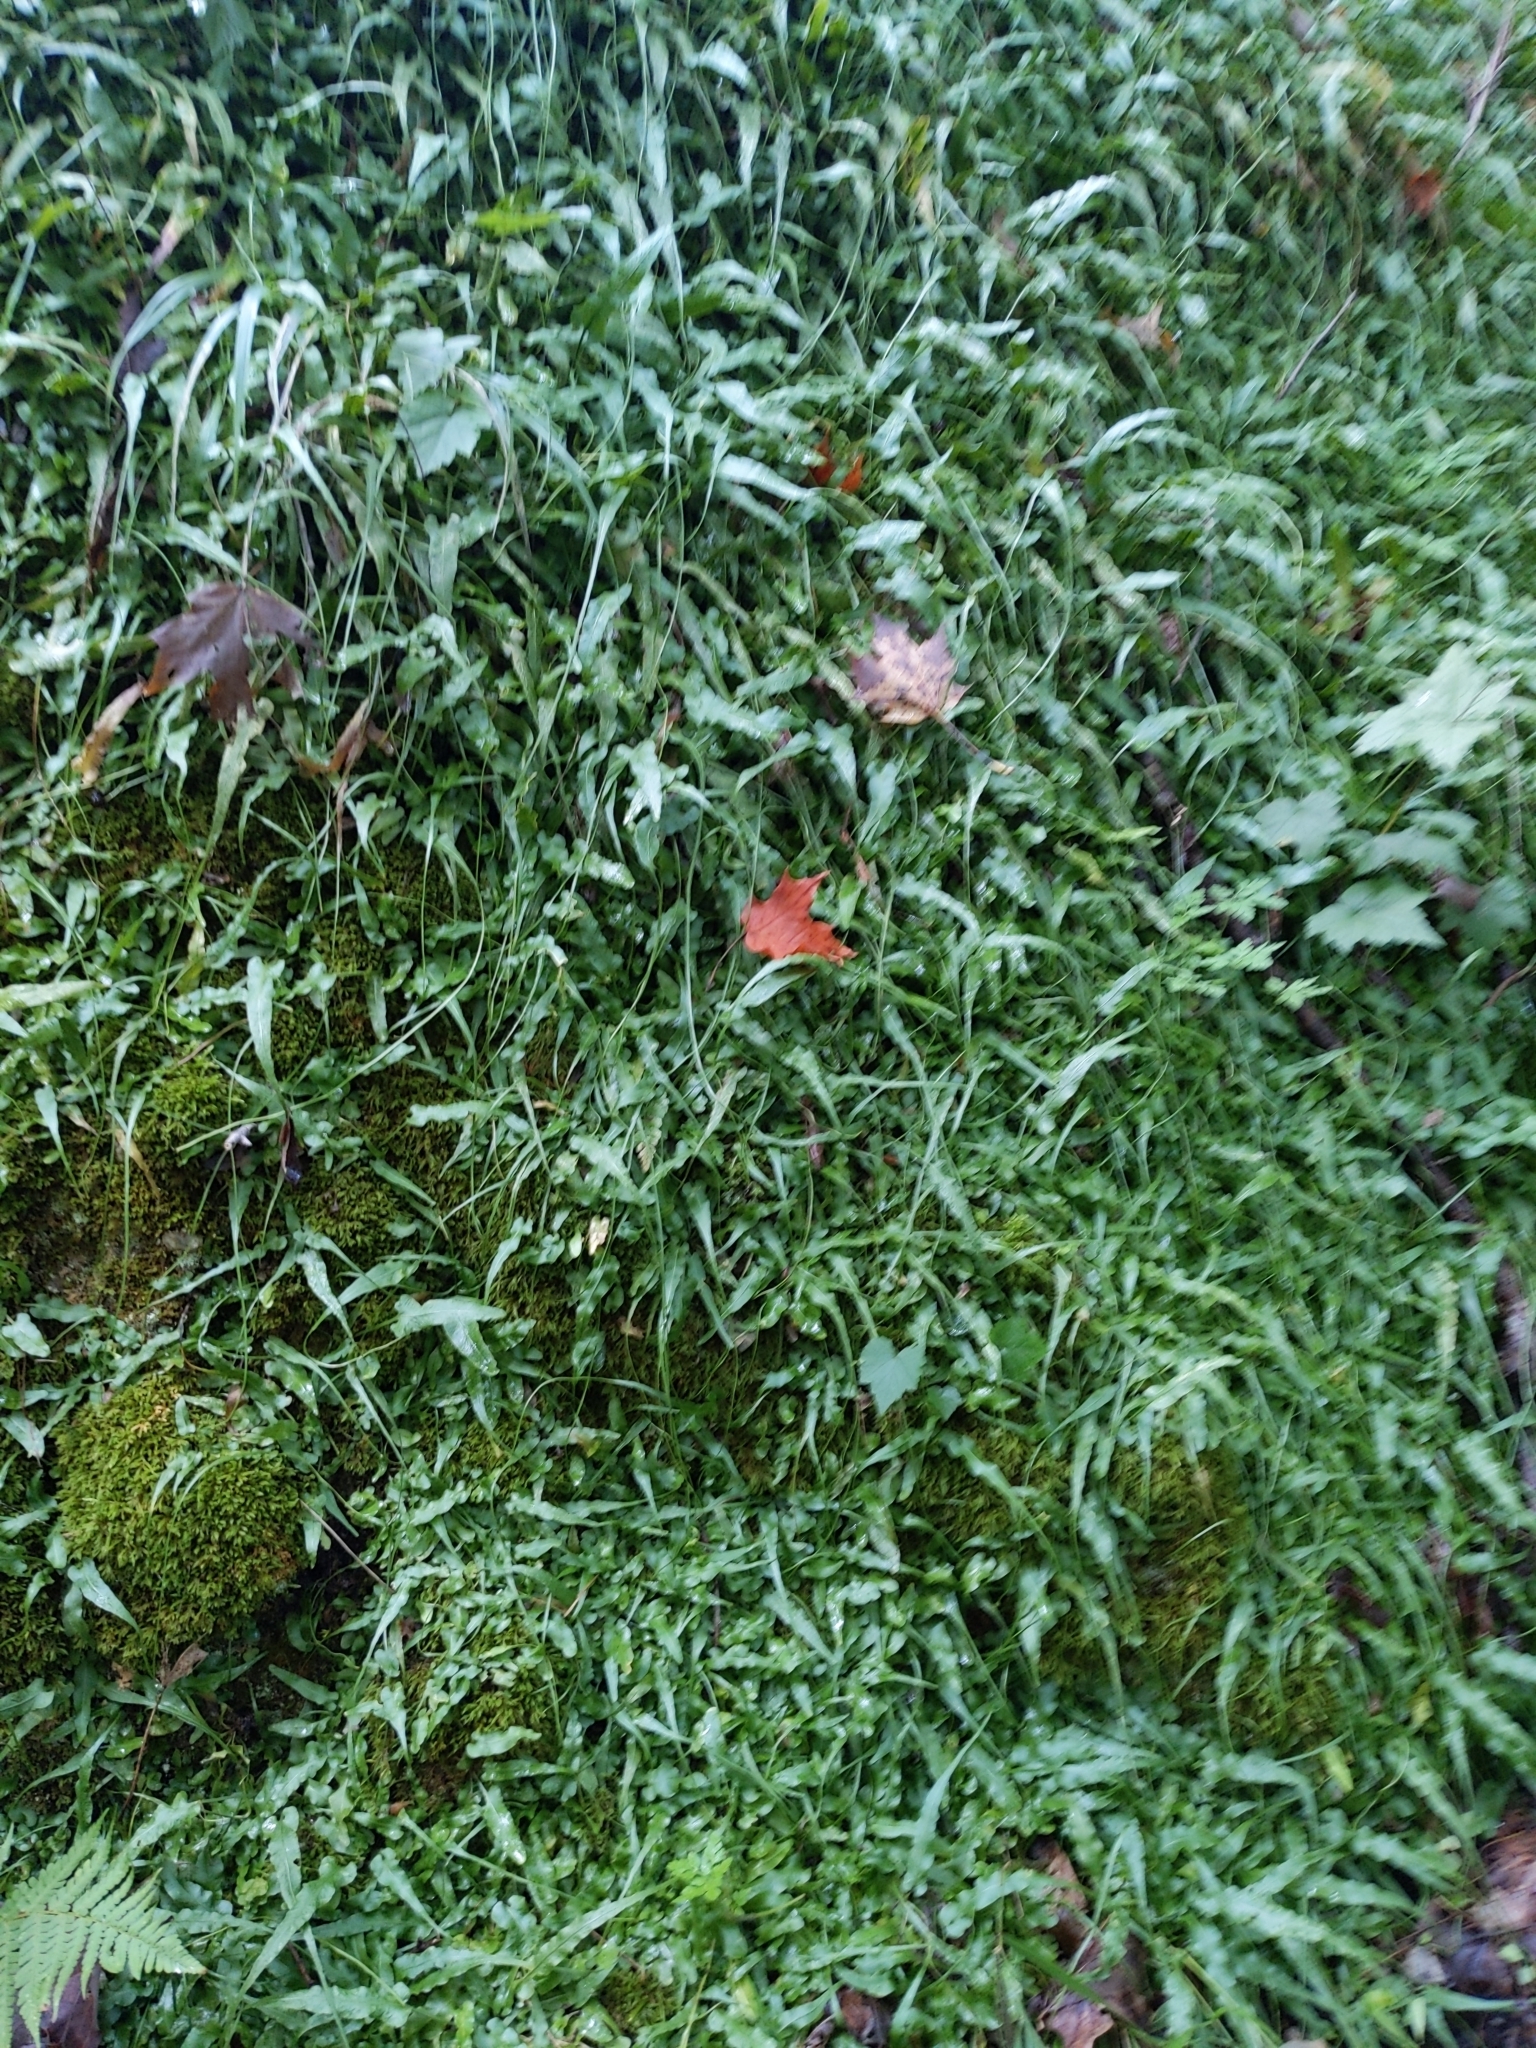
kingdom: Plantae
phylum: Tracheophyta
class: Polypodiopsida
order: Polypodiales
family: Aspleniaceae
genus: Asplenium
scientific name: Asplenium rhizophyllum
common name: Walking fern
